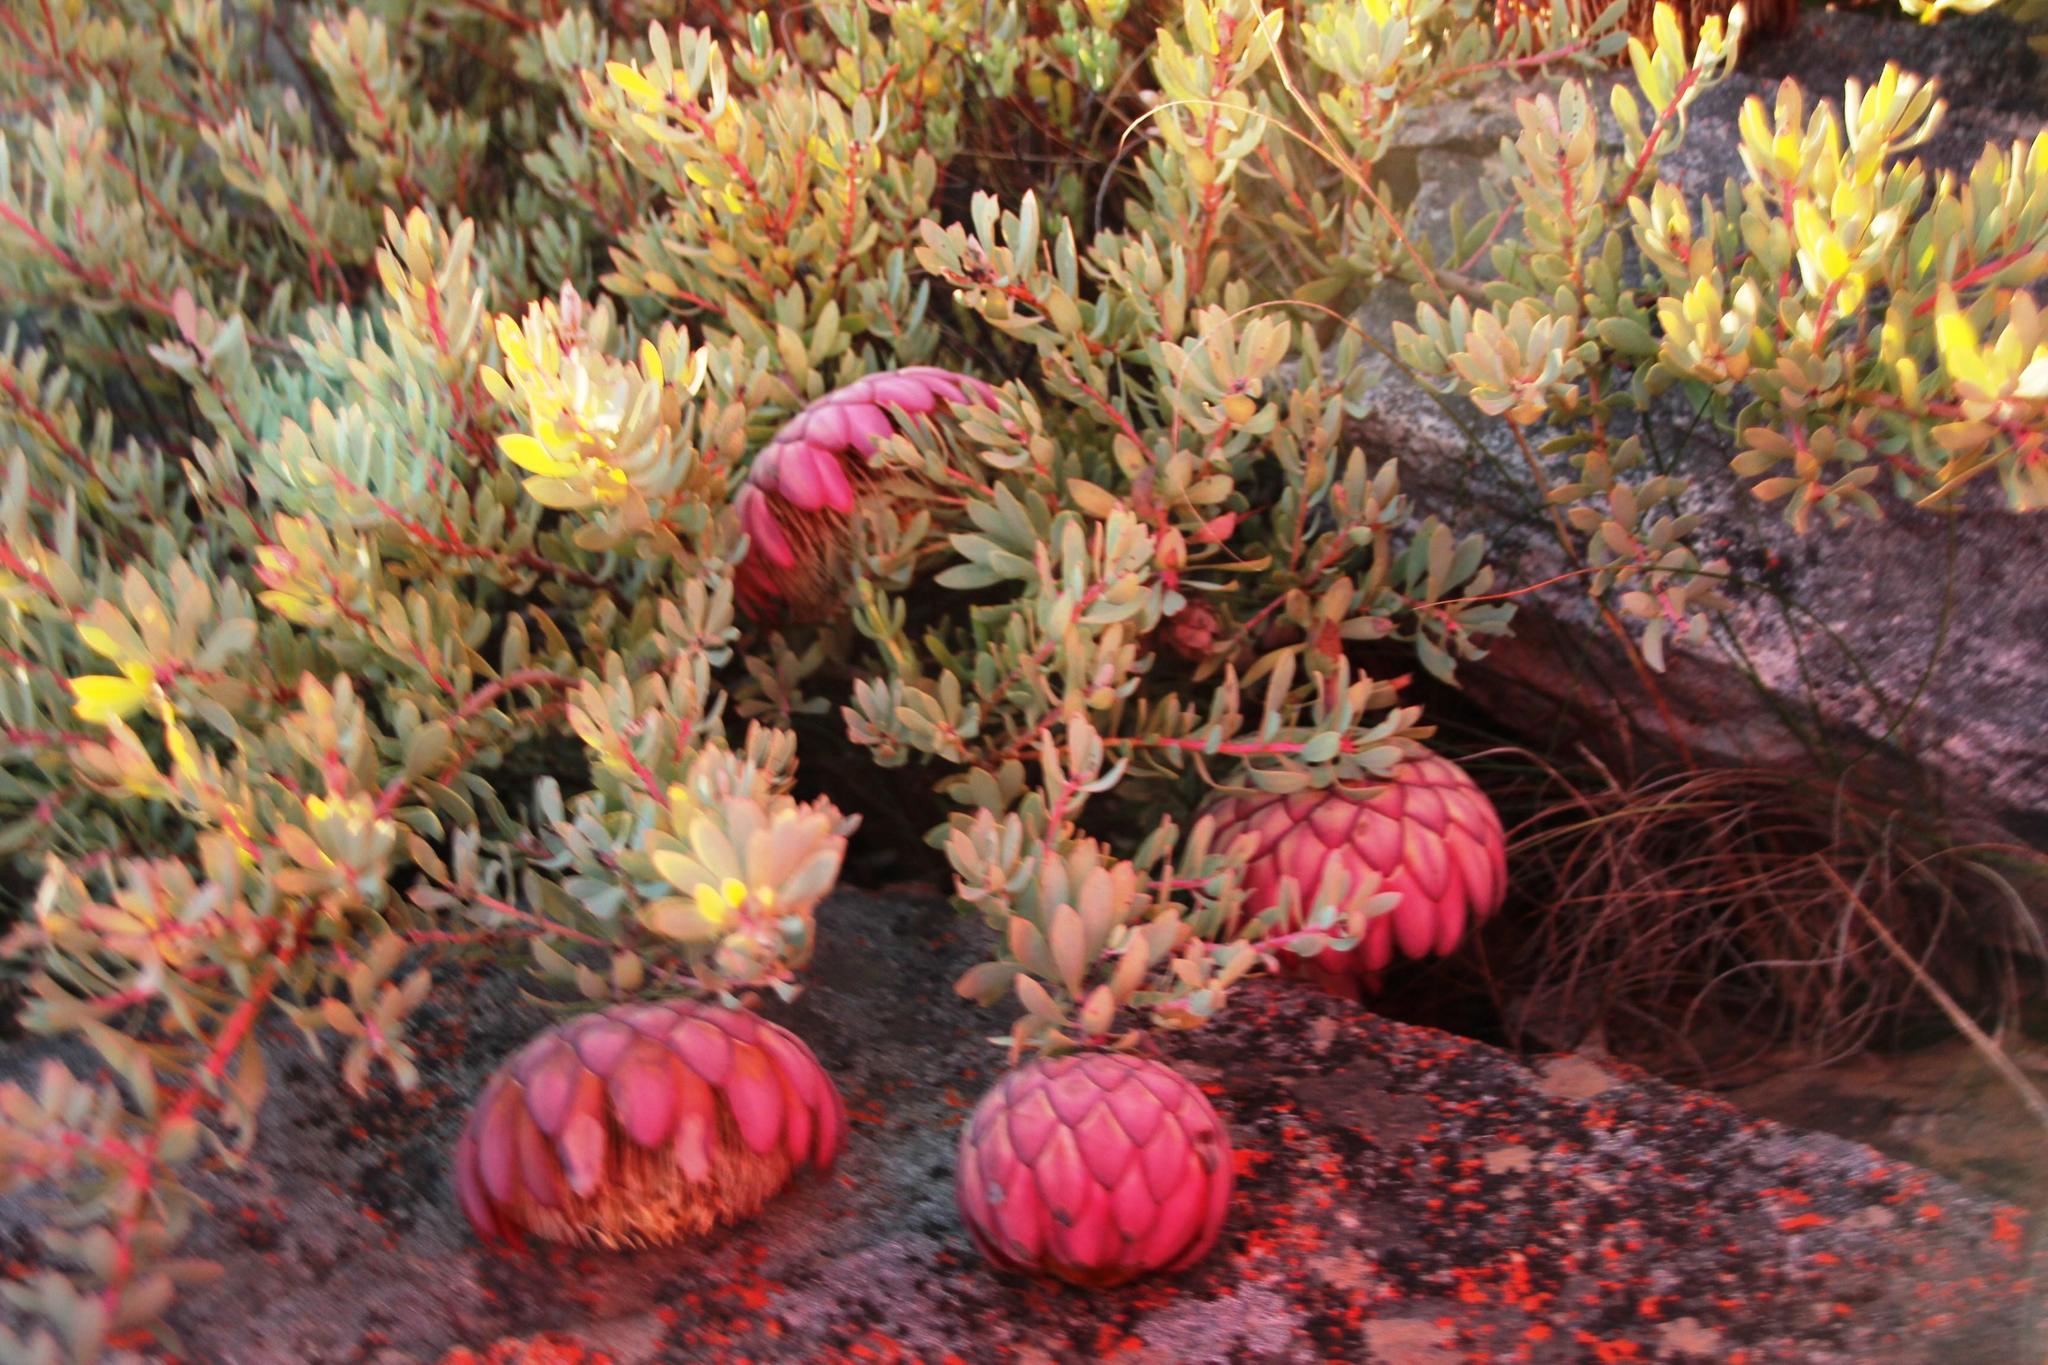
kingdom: Plantae
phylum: Tracheophyta
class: Magnoliopsida
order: Proteales
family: Proteaceae
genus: Protea
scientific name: Protea sulphurea
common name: Sulphur sugarbush
